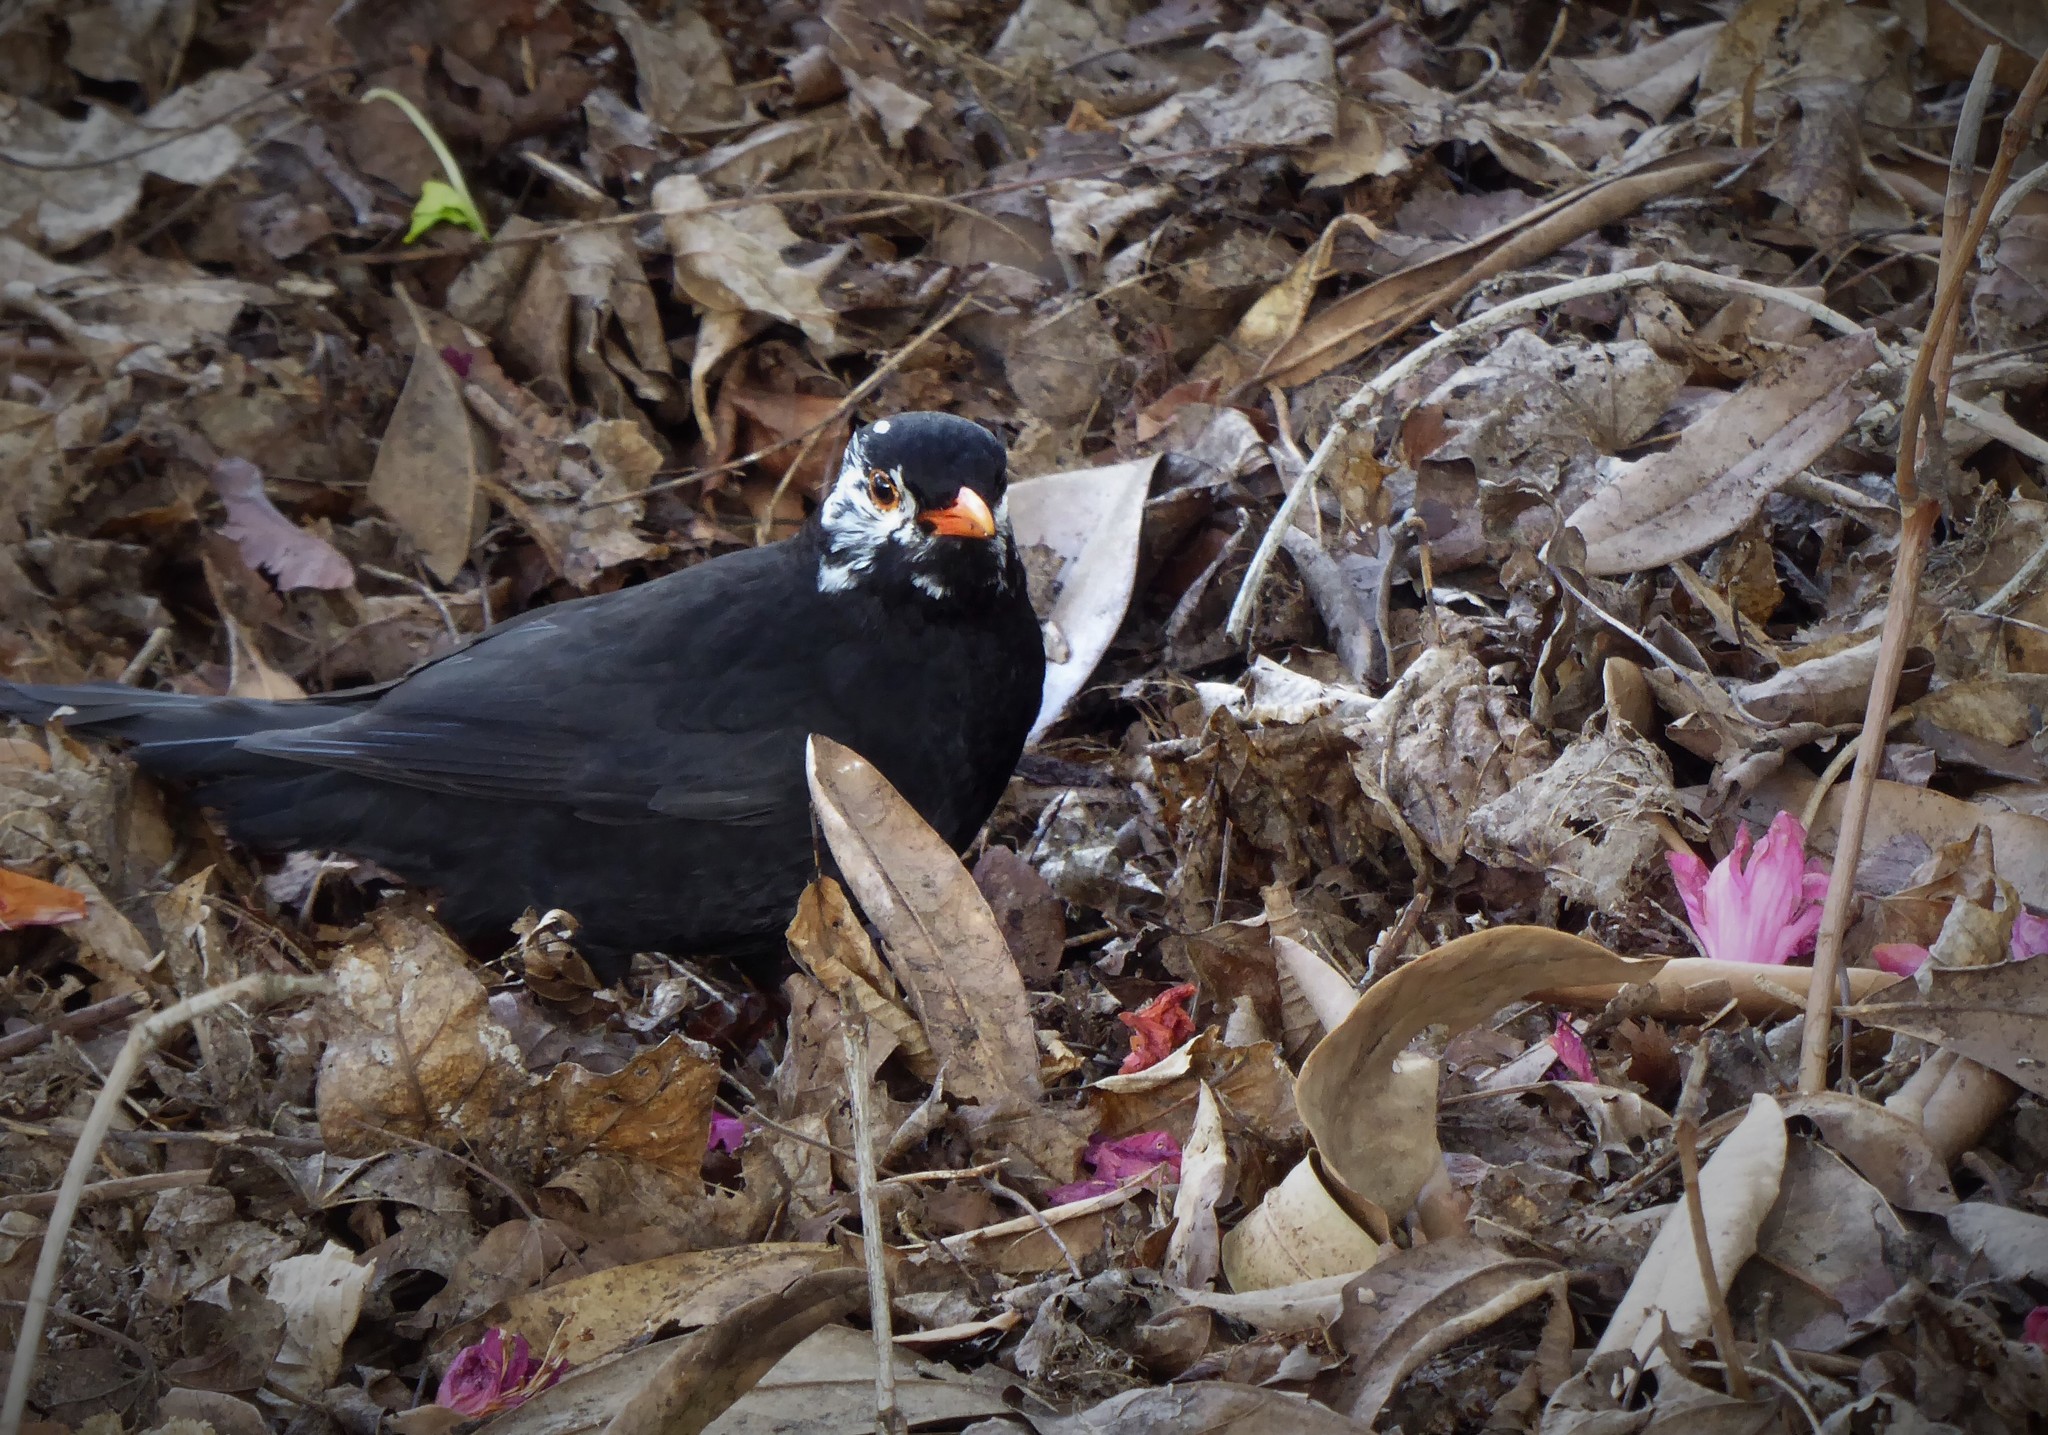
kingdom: Animalia
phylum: Chordata
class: Aves
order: Passeriformes
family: Turdidae
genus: Turdus
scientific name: Turdus merula
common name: Common blackbird
